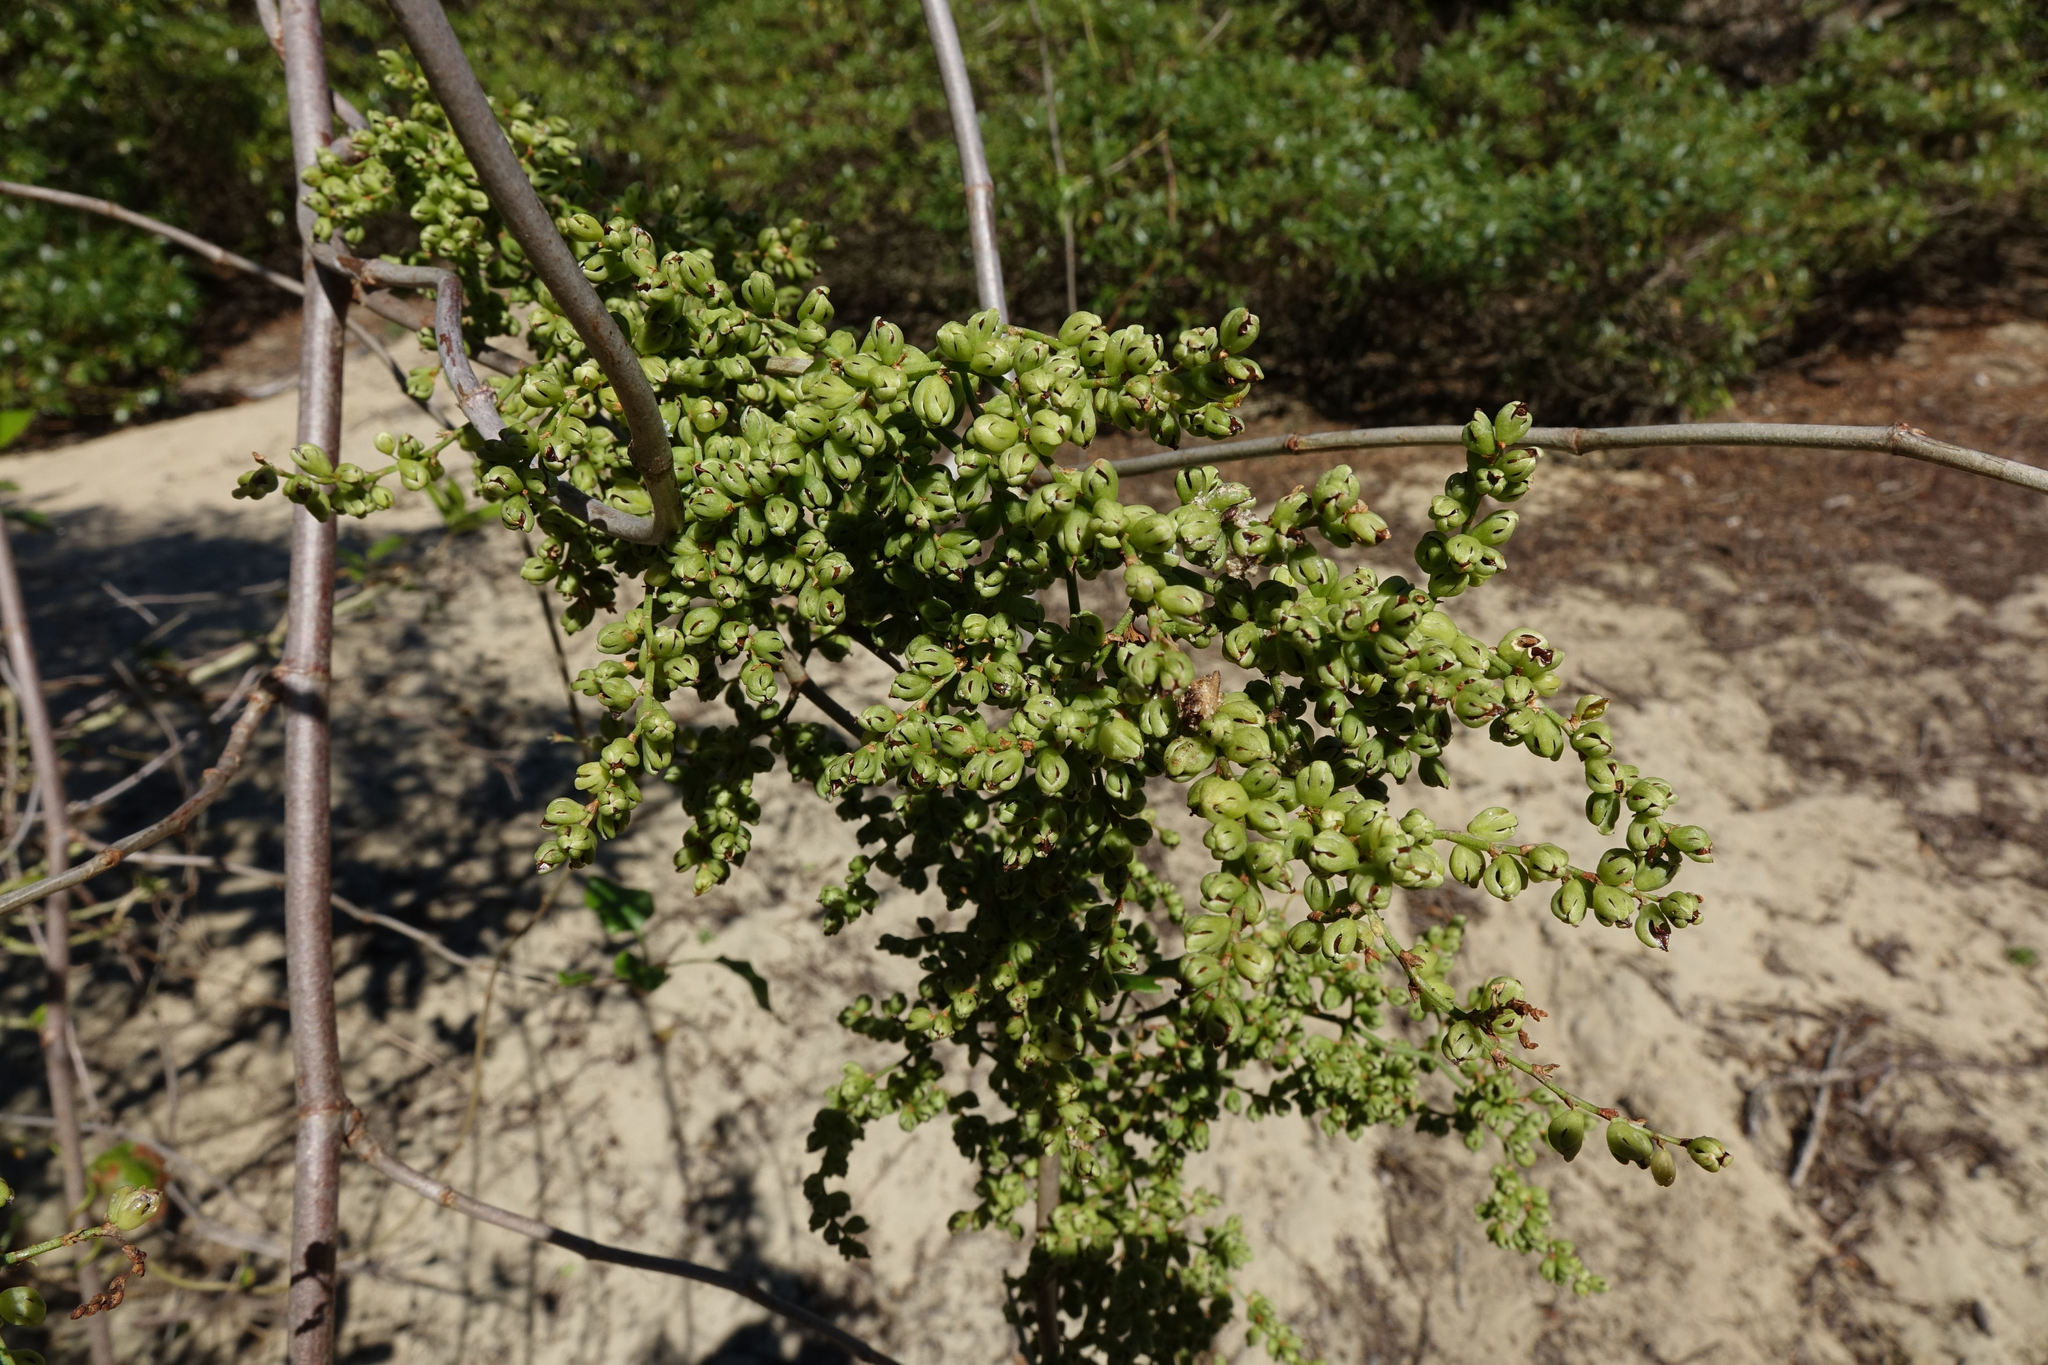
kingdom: Plantae
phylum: Tracheophyta
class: Magnoliopsida
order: Caryophyllales
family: Polygonaceae
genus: Muehlenbeckia
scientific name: Muehlenbeckia australis
